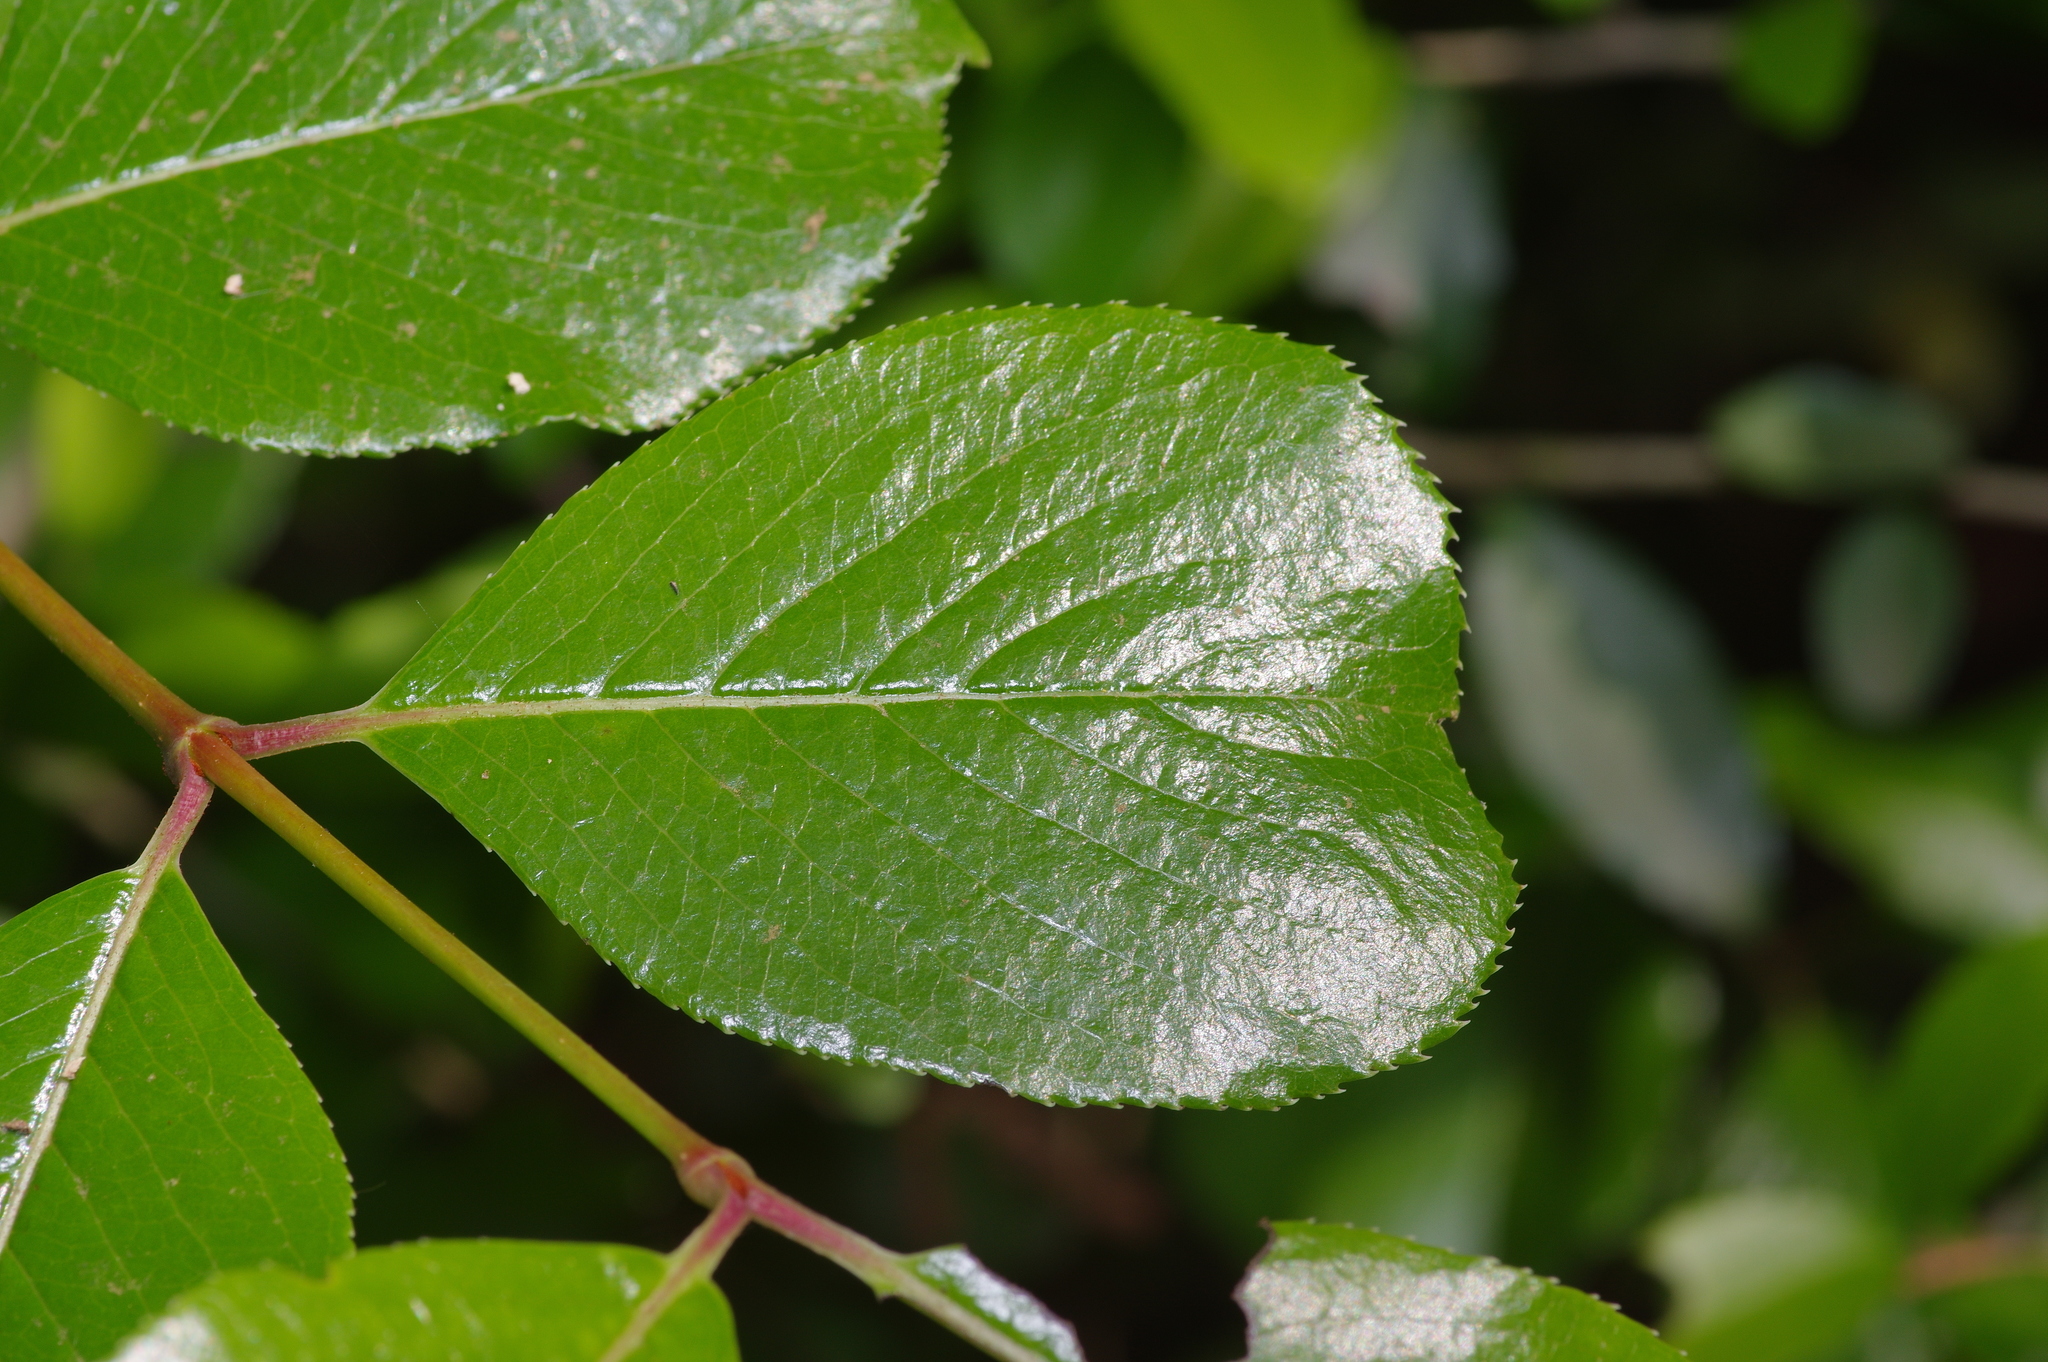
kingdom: Plantae
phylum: Tracheophyta
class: Magnoliopsida
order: Dipsacales
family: Viburnaceae
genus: Viburnum
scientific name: Viburnum rufidulum
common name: Blue haw
